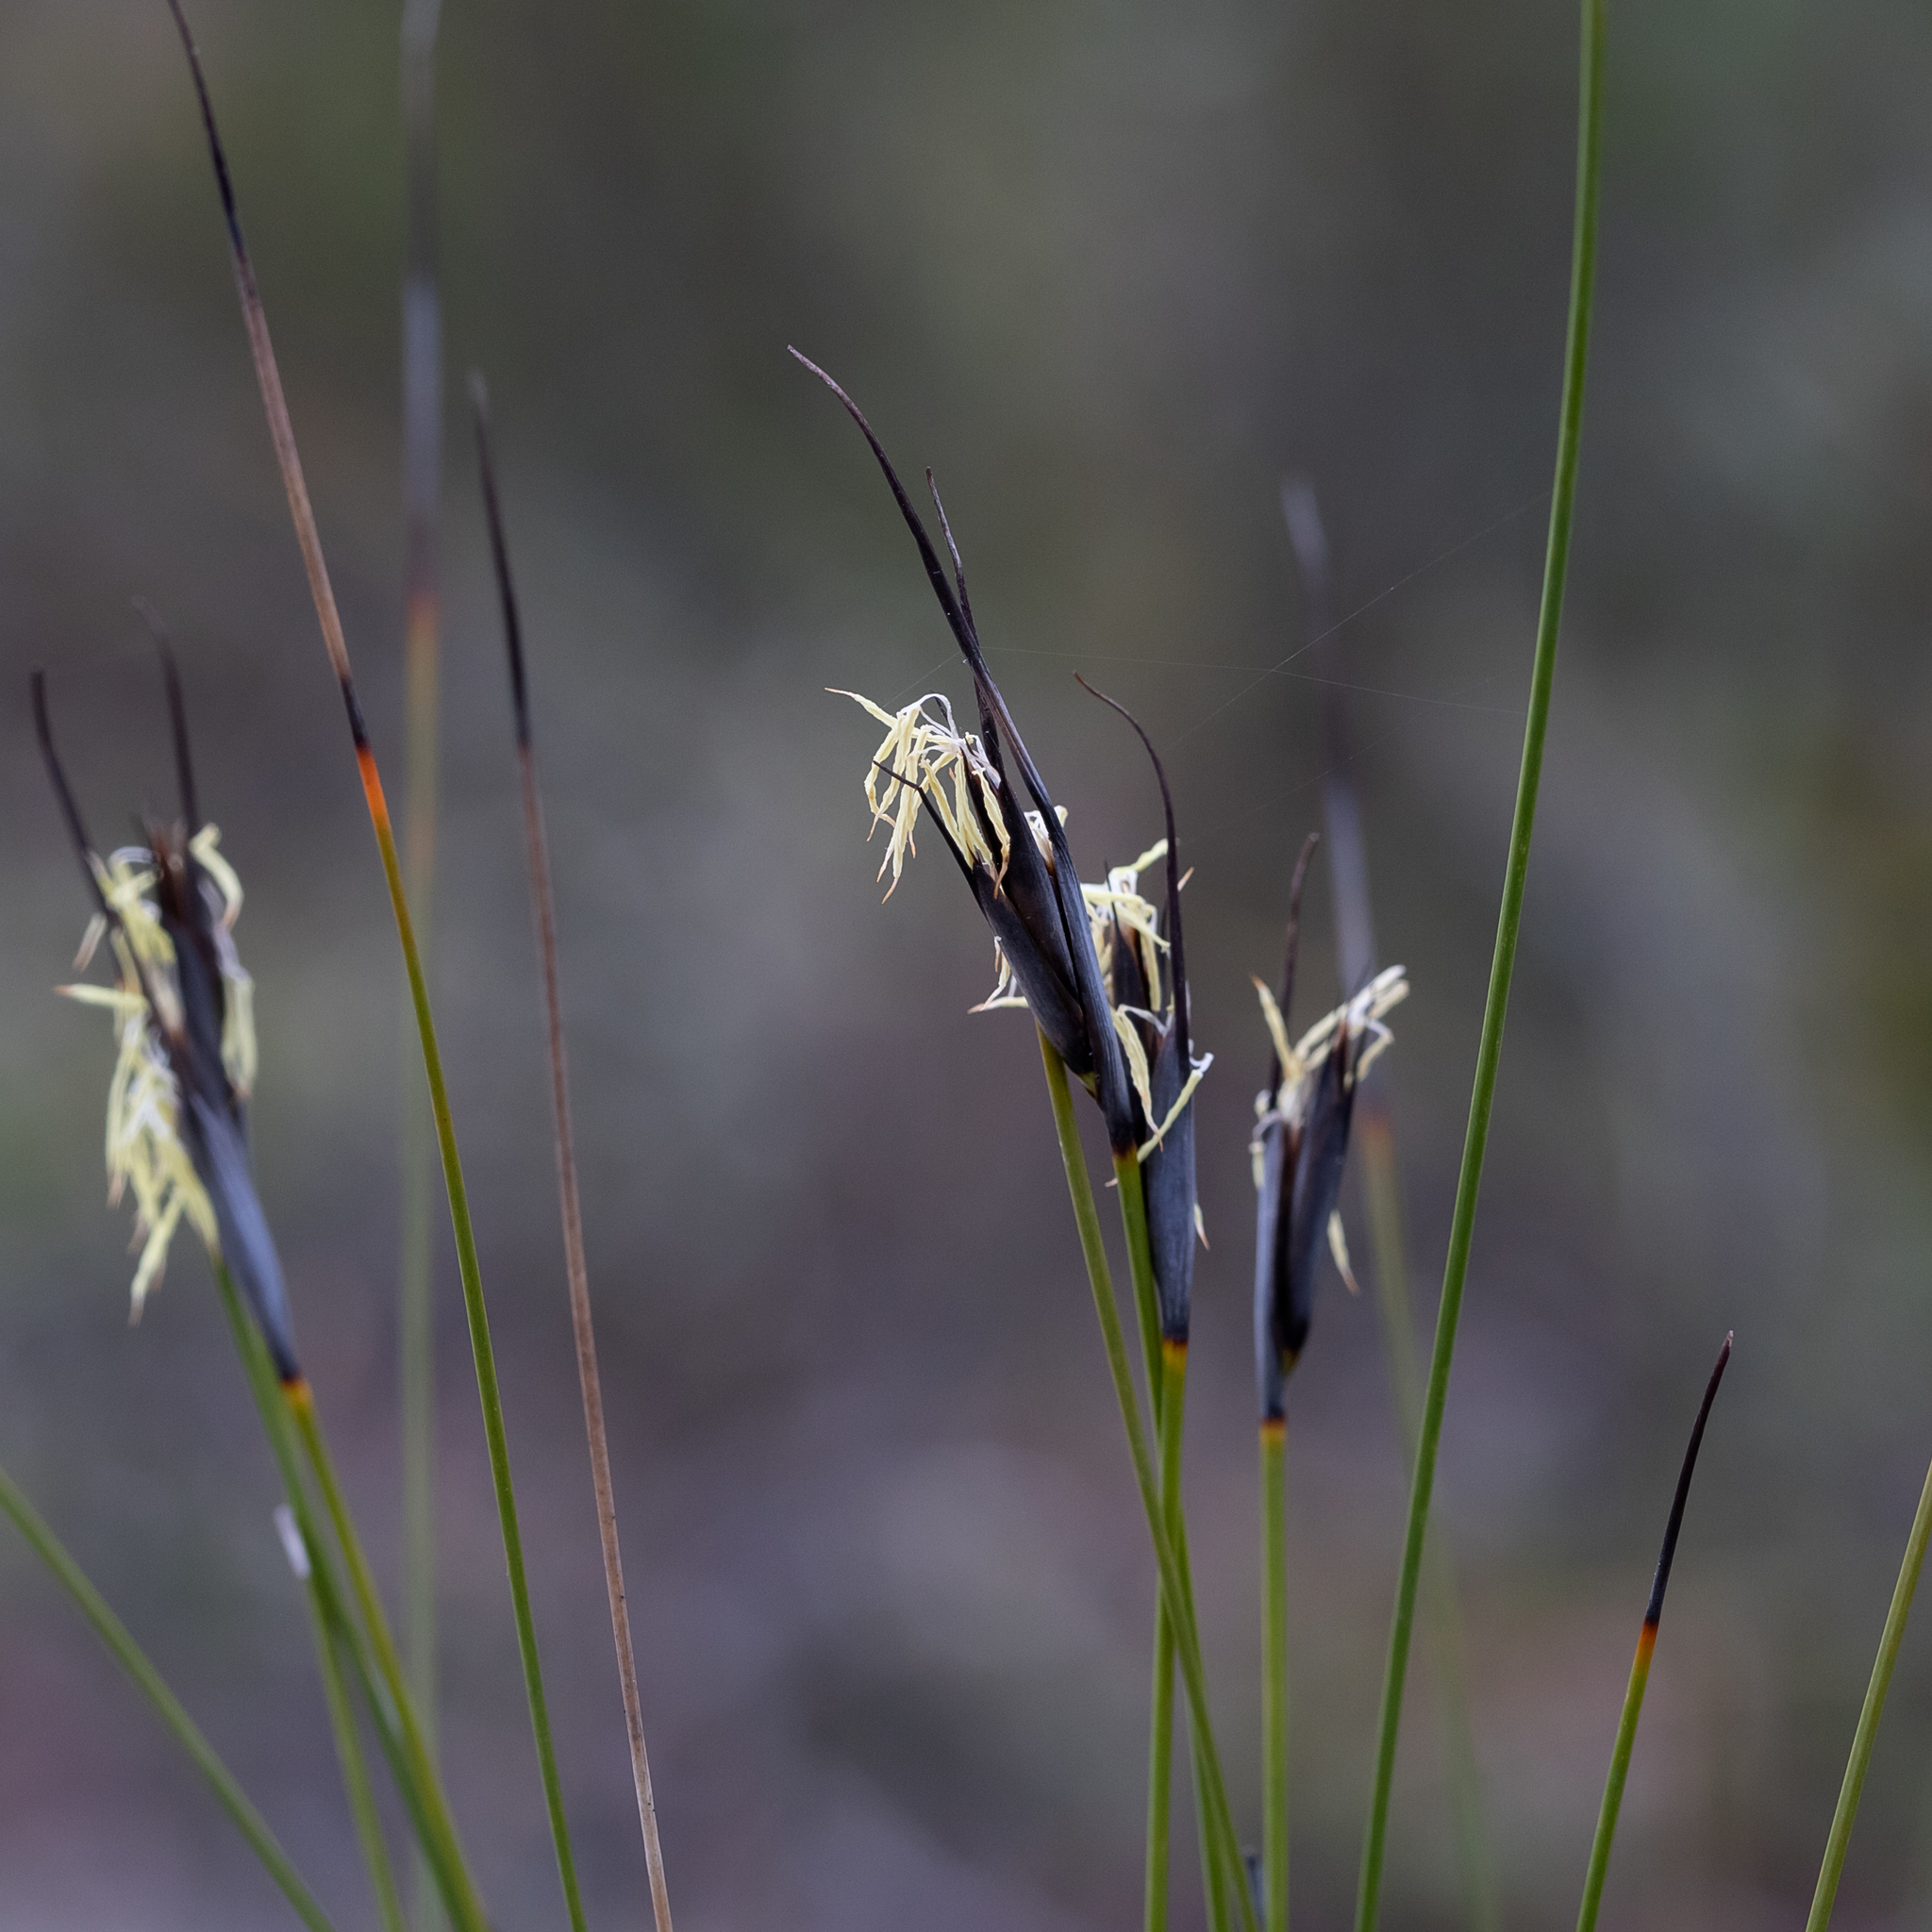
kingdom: Plantae
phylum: Tracheophyta
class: Liliopsida
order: Poales
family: Cyperaceae
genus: Lepidosperma
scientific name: Lepidosperma carphoides
